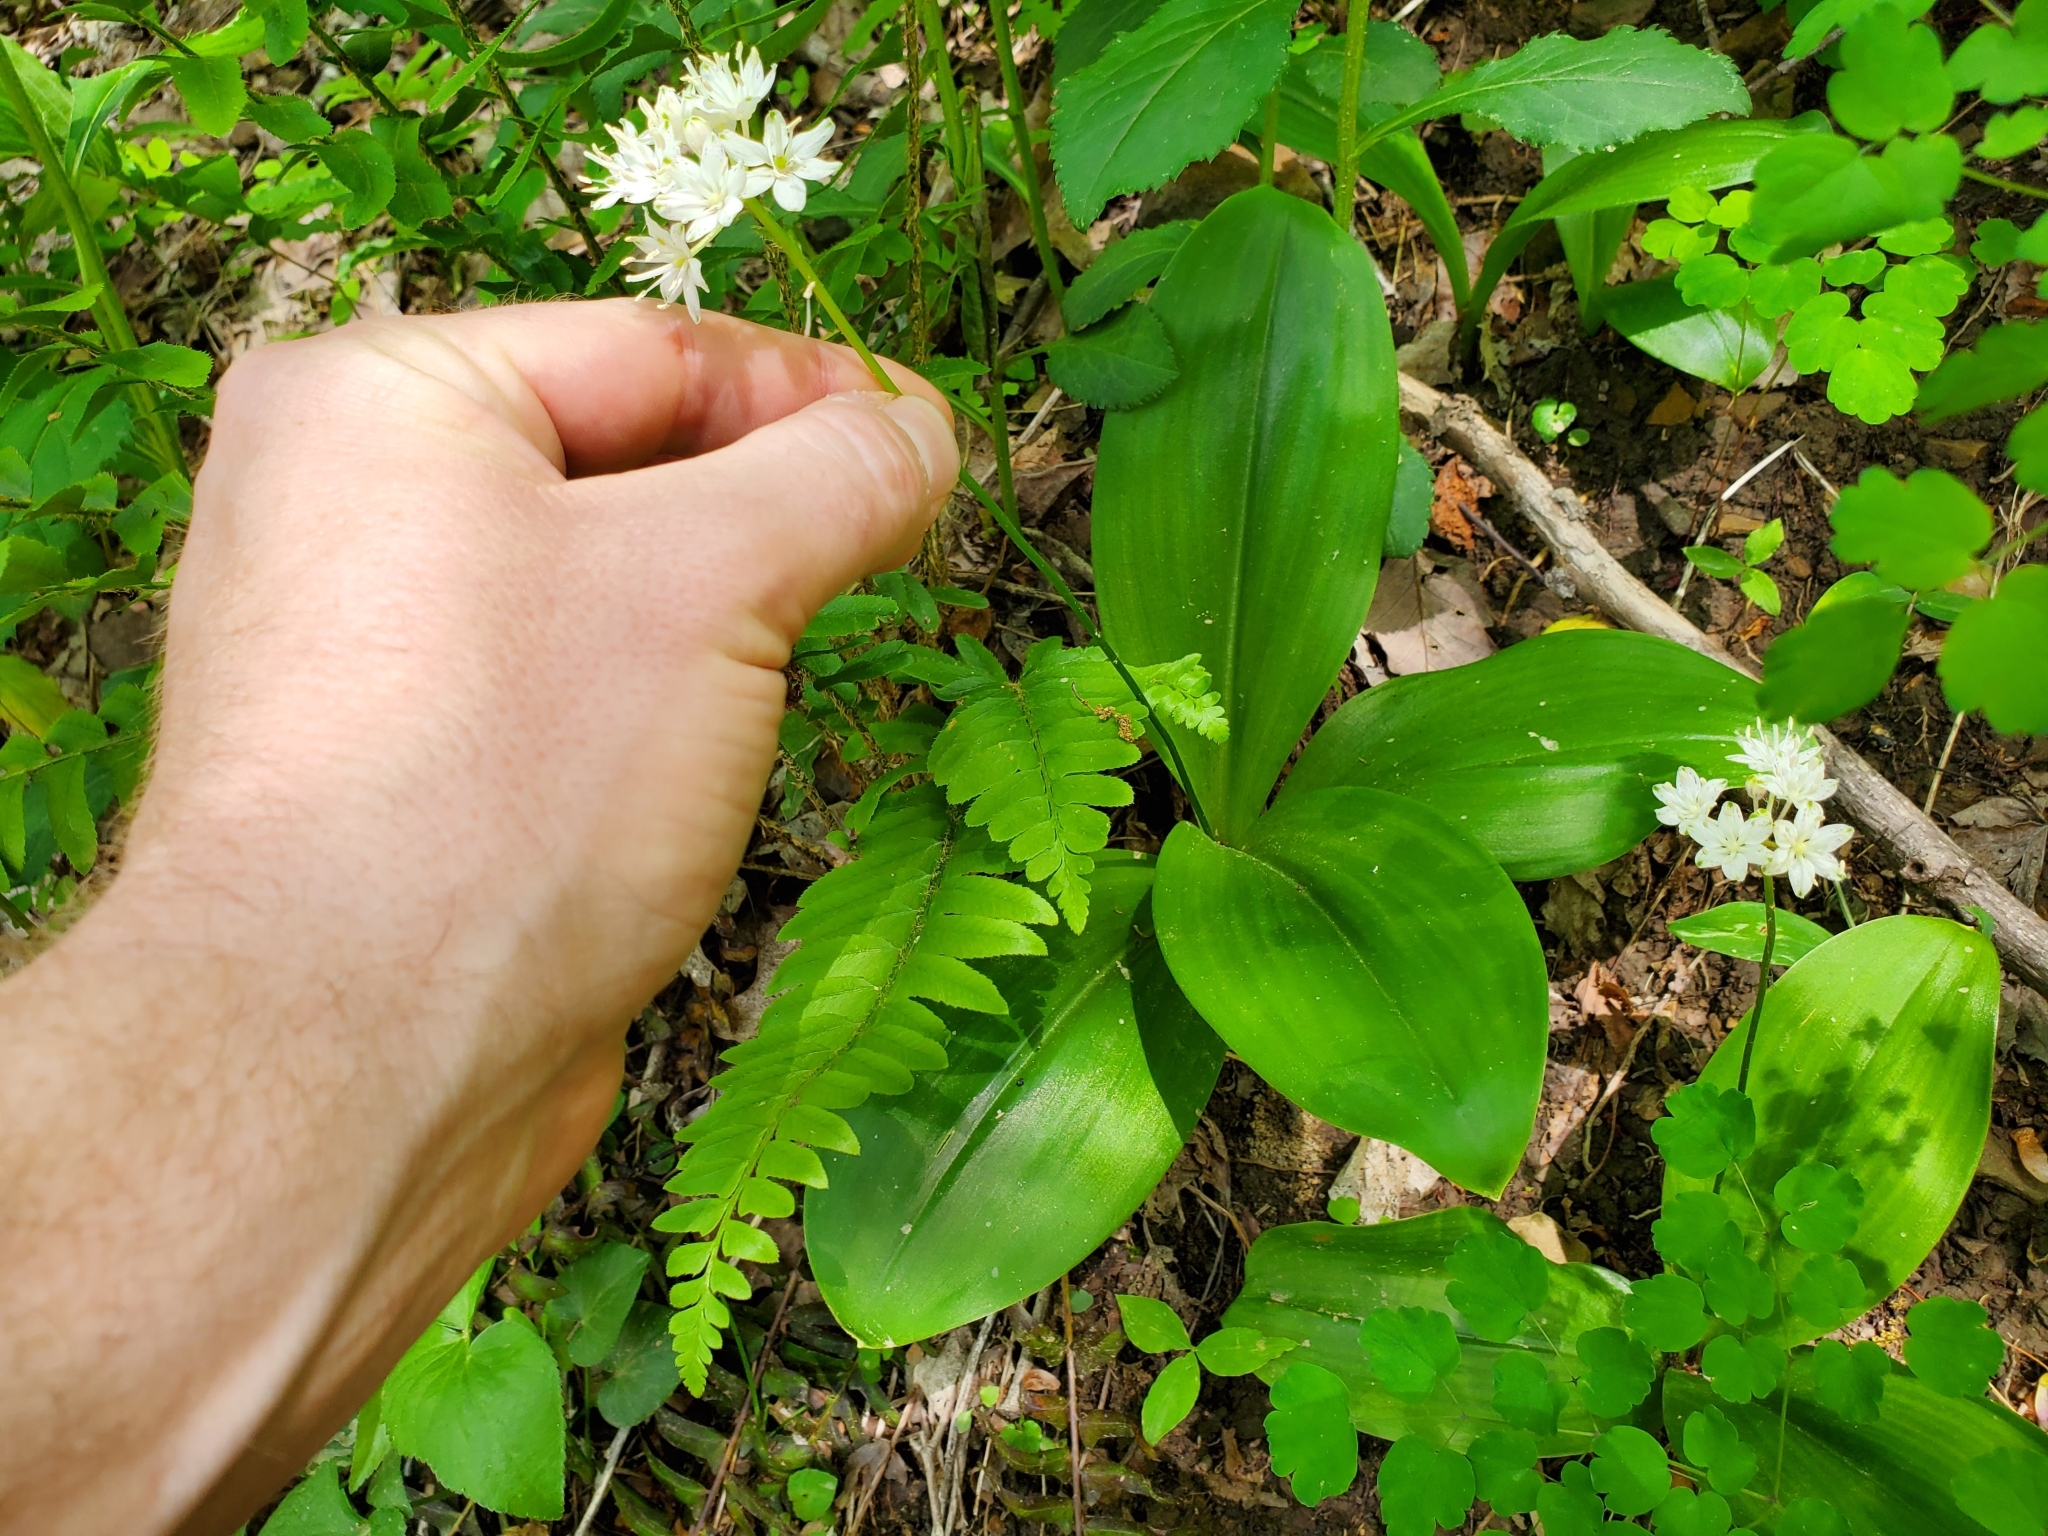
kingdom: Plantae
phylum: Tracheophyta
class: Liliopsida
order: Liliales
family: Liliaceae
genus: Clintonia
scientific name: Clintonia umbellulata
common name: Speckle wood-lily
